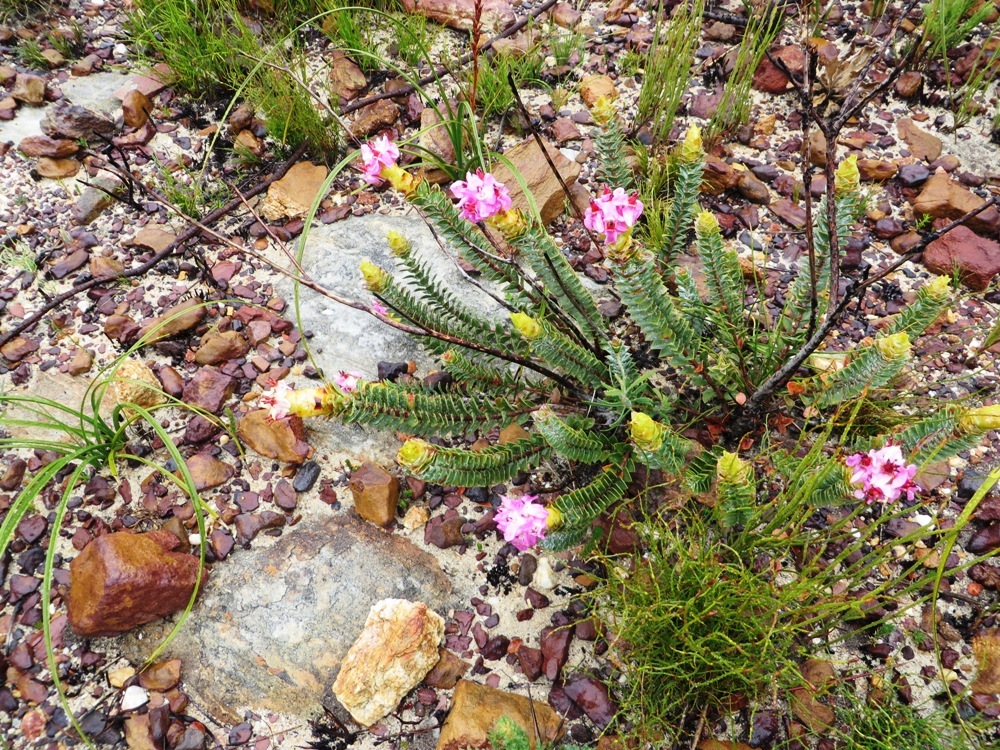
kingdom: Plantae
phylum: Tracheophyta
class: Magnoliopsida
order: Myrtales
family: Penaeaceae
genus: Saltera
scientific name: Saltera sarcocolla
